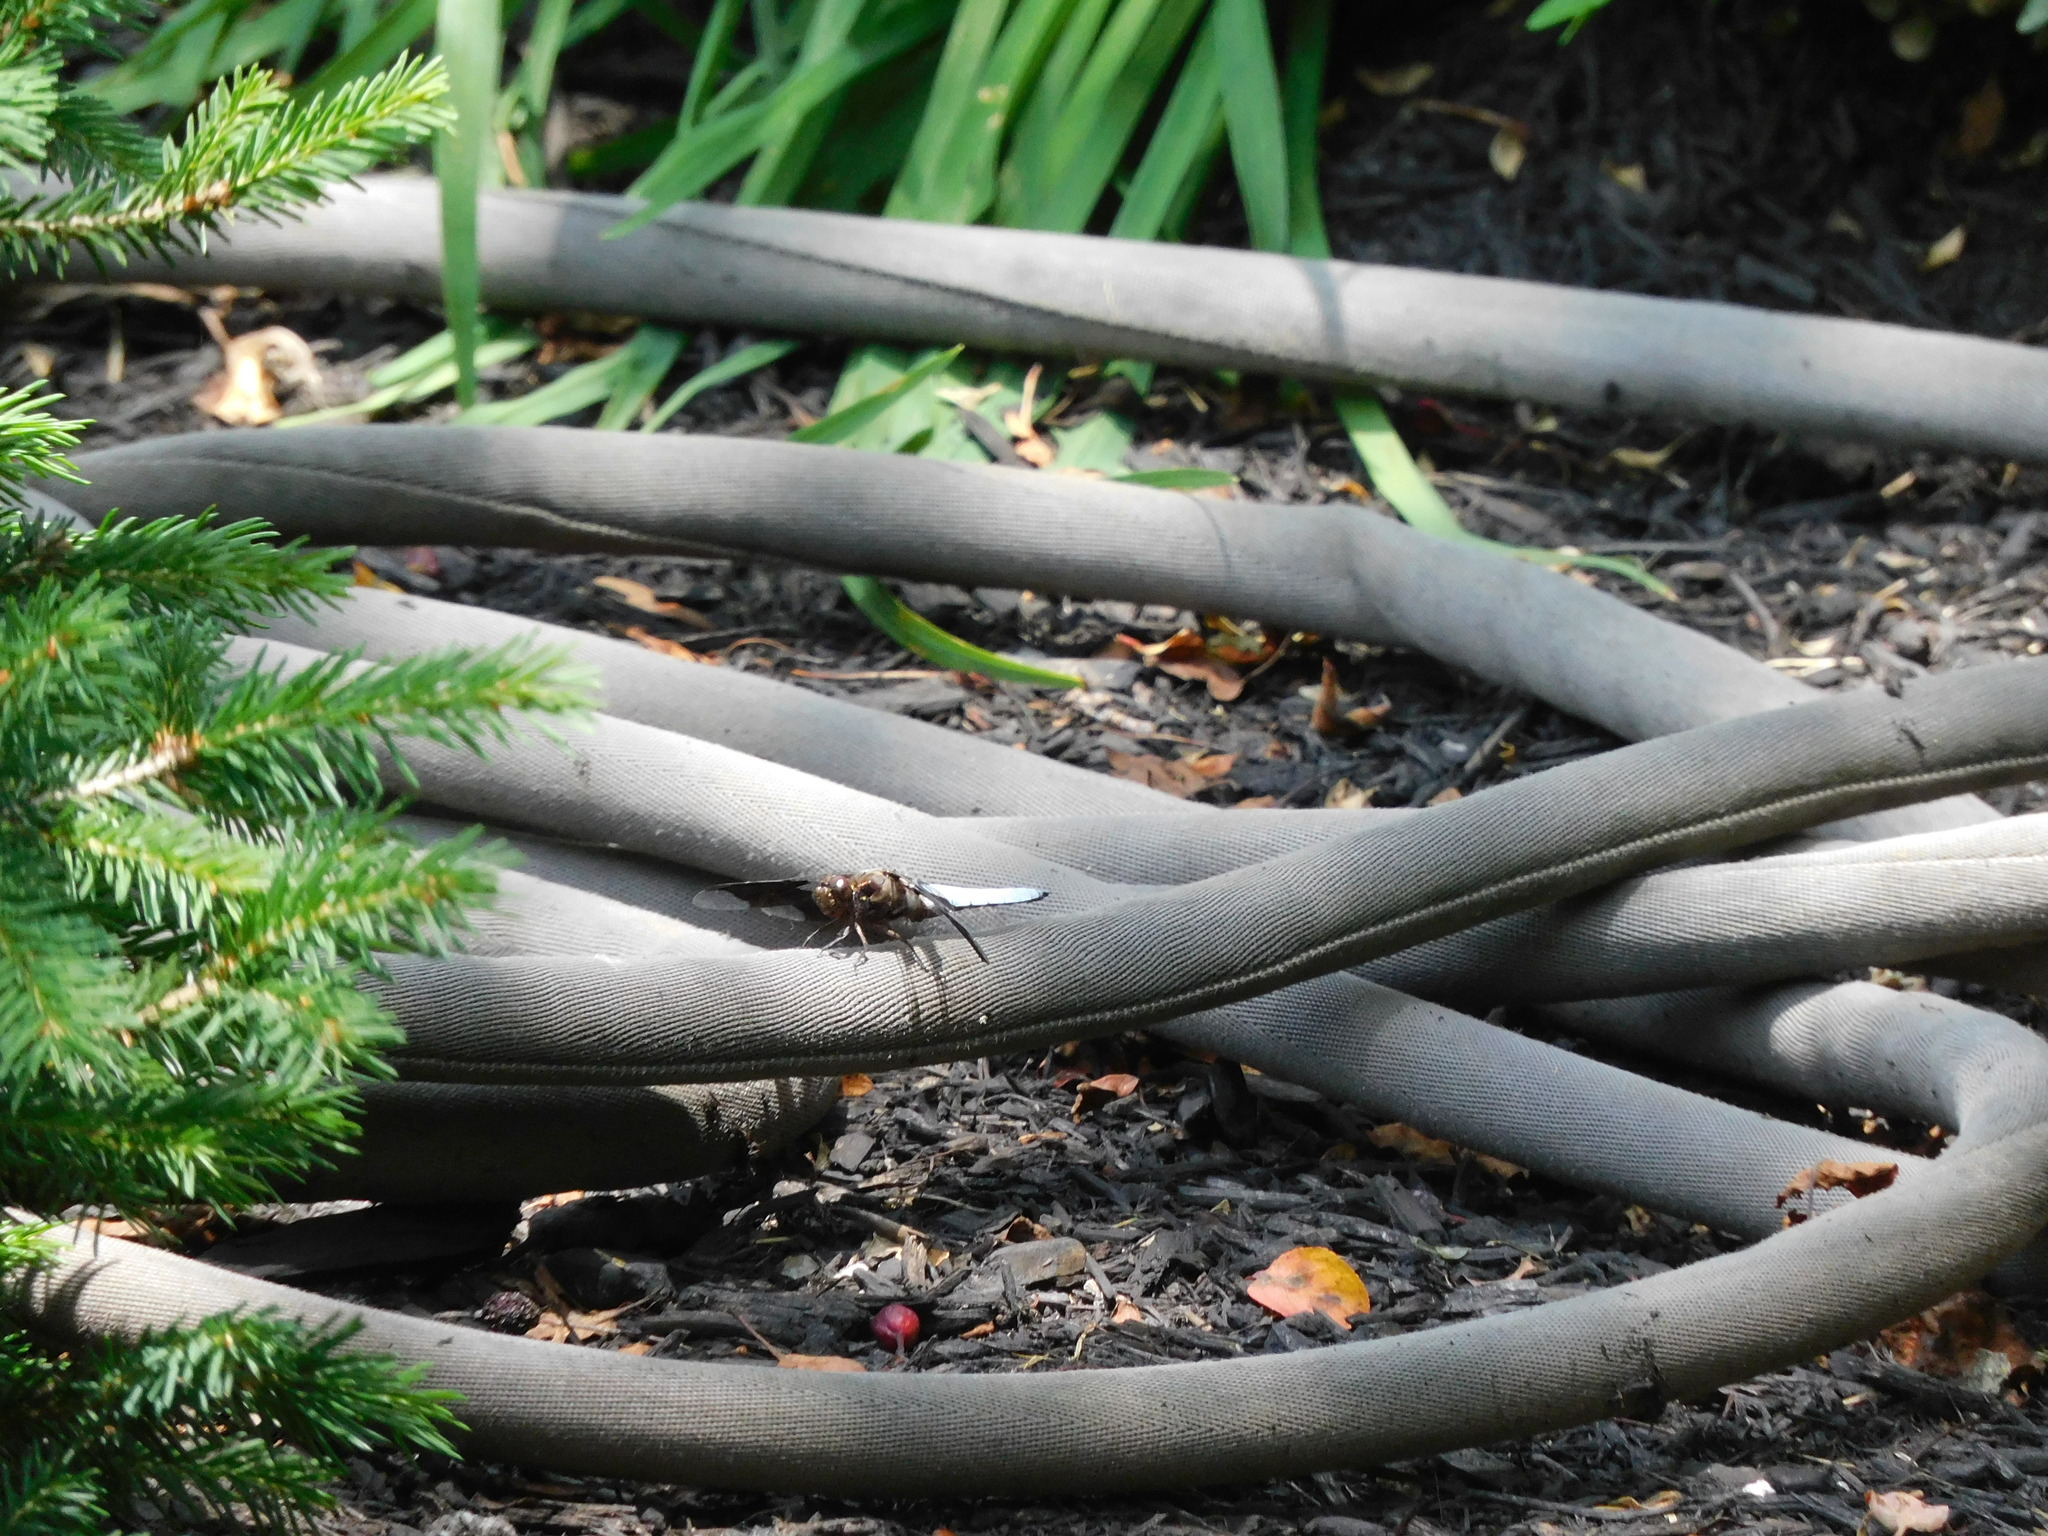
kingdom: Animalia
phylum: Arthropoda
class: Insecta
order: Odonata
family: Libellulidae
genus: Plathemis
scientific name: Plathemis lydia
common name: Common whitetail
